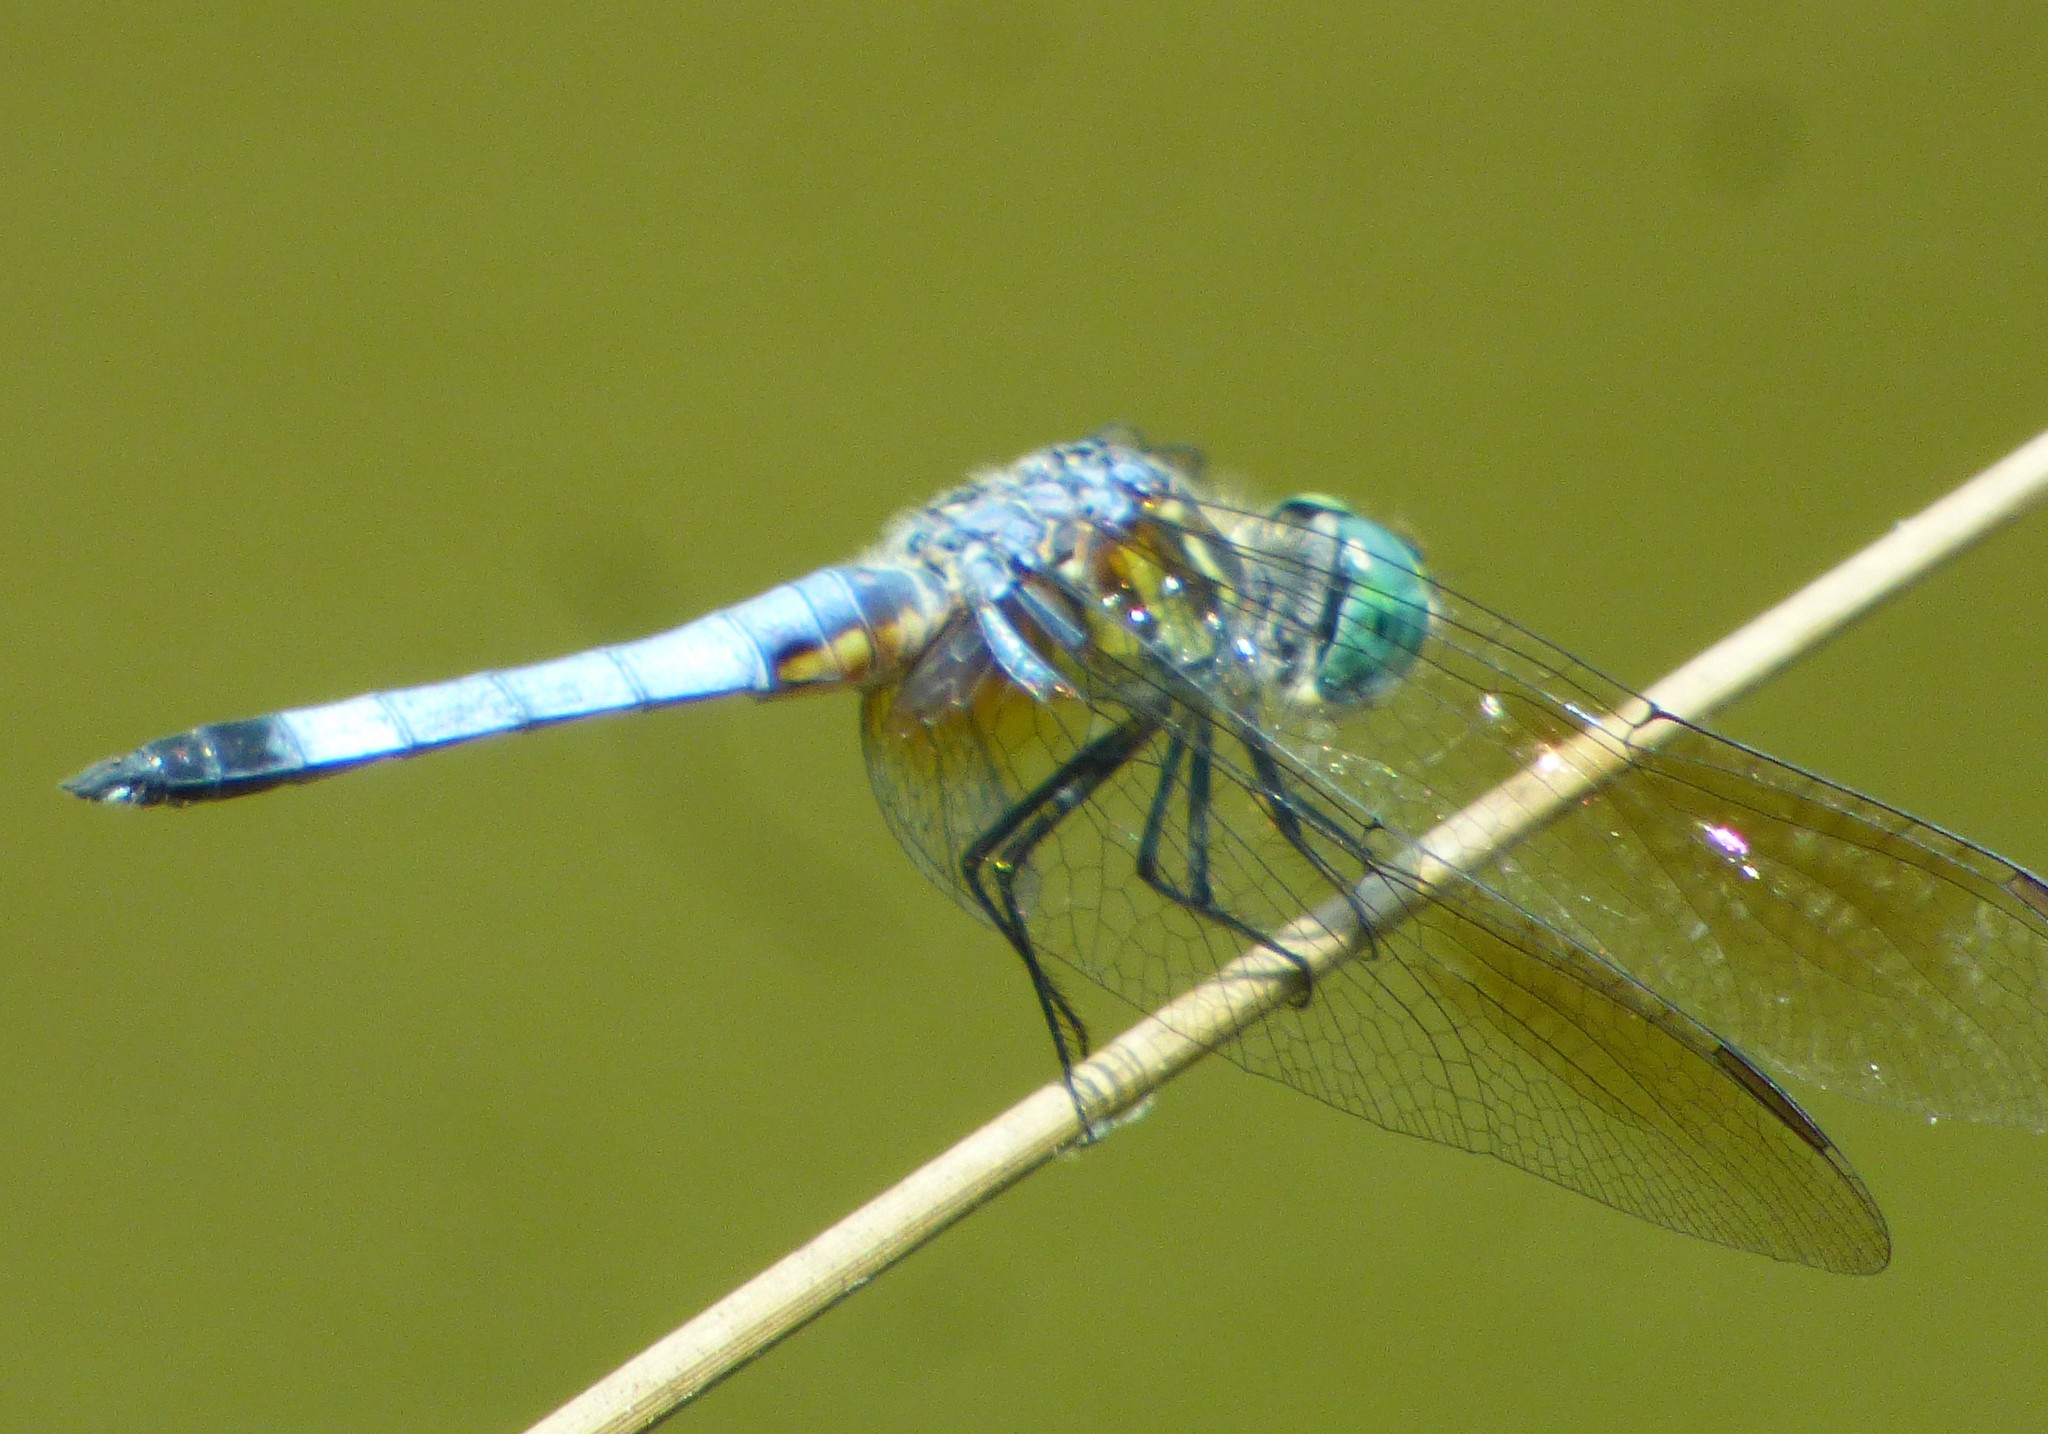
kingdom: Animalia
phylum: Arthropoda
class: Insecta
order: Odonata
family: Libellulidae
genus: Pachydiplax
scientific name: Pachydiplax longipennis
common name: Blue dasher
